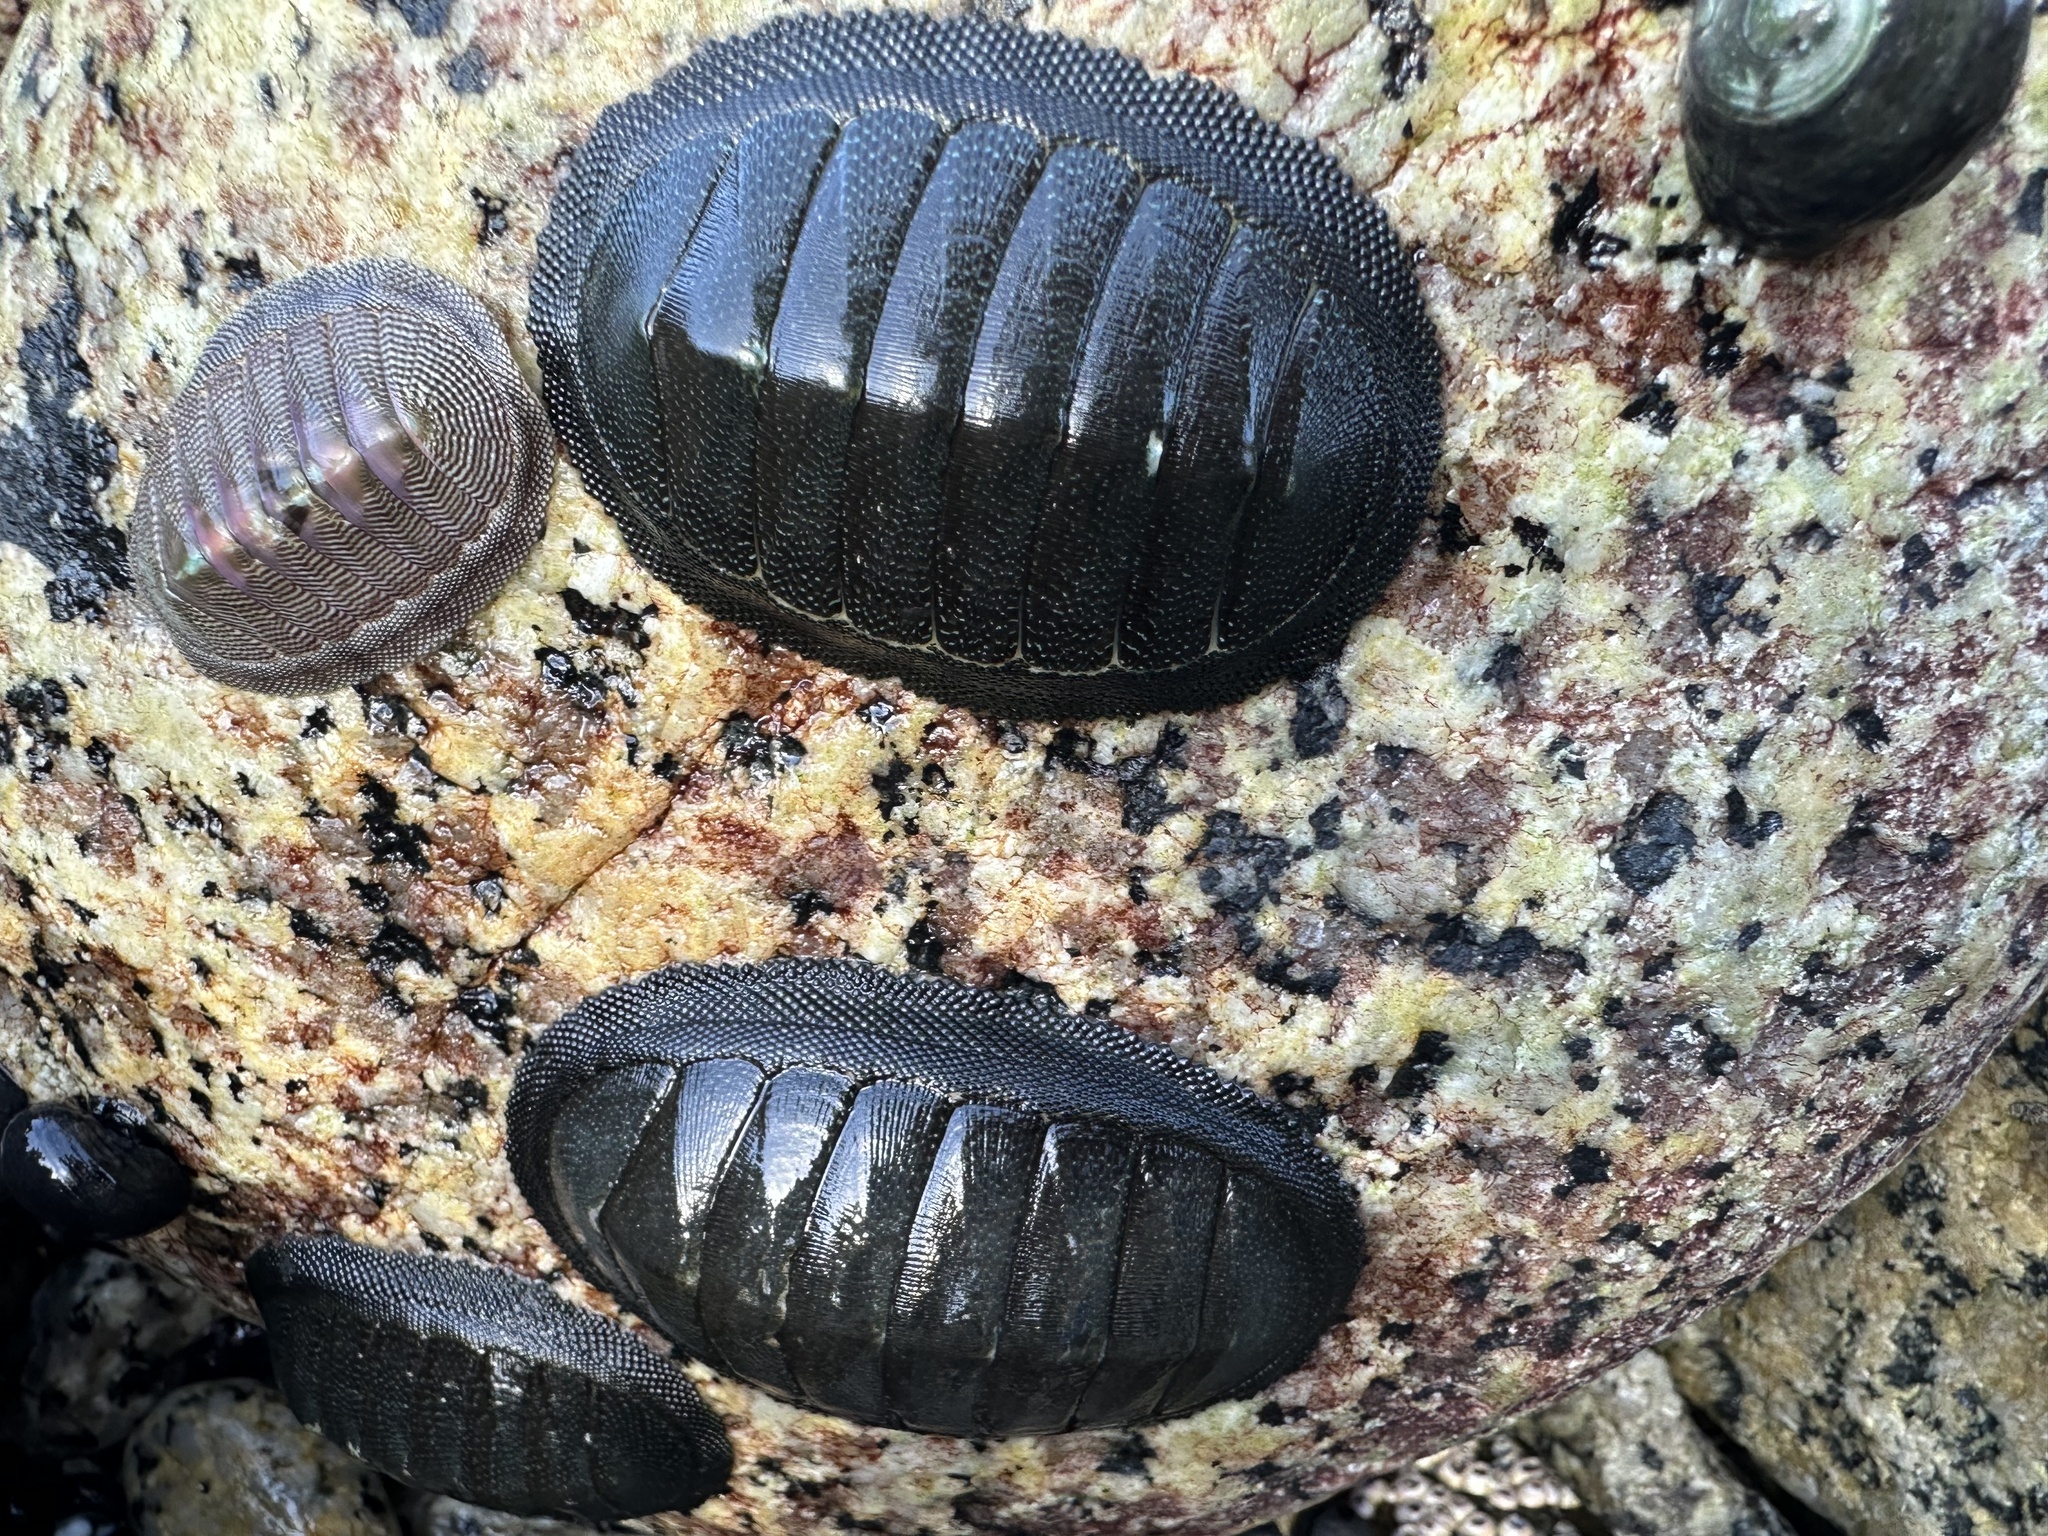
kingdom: Animalia
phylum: Mollusca
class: Polyplacophora
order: Chitonida
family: Chitonidae
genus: Chiton
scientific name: Chiton cumingsii
